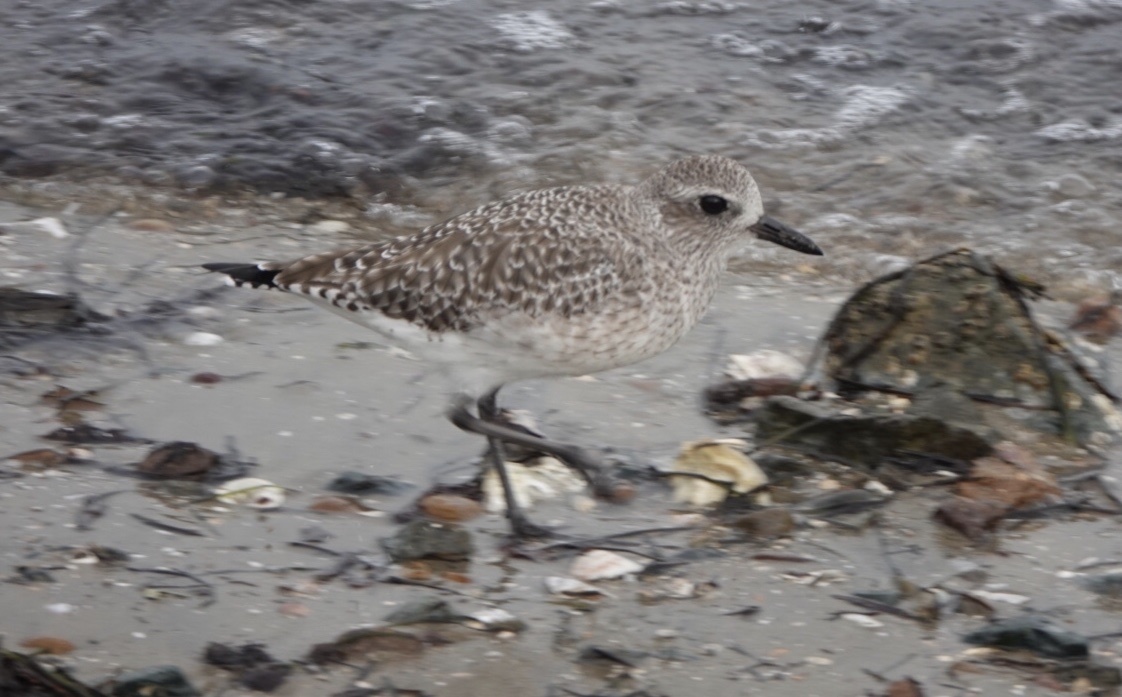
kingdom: Animalia
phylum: Chordata
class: Aves
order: Charadriiformes
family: Charadriidae
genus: Pluvialis
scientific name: Pluvialis squatarola
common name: Grey plover
